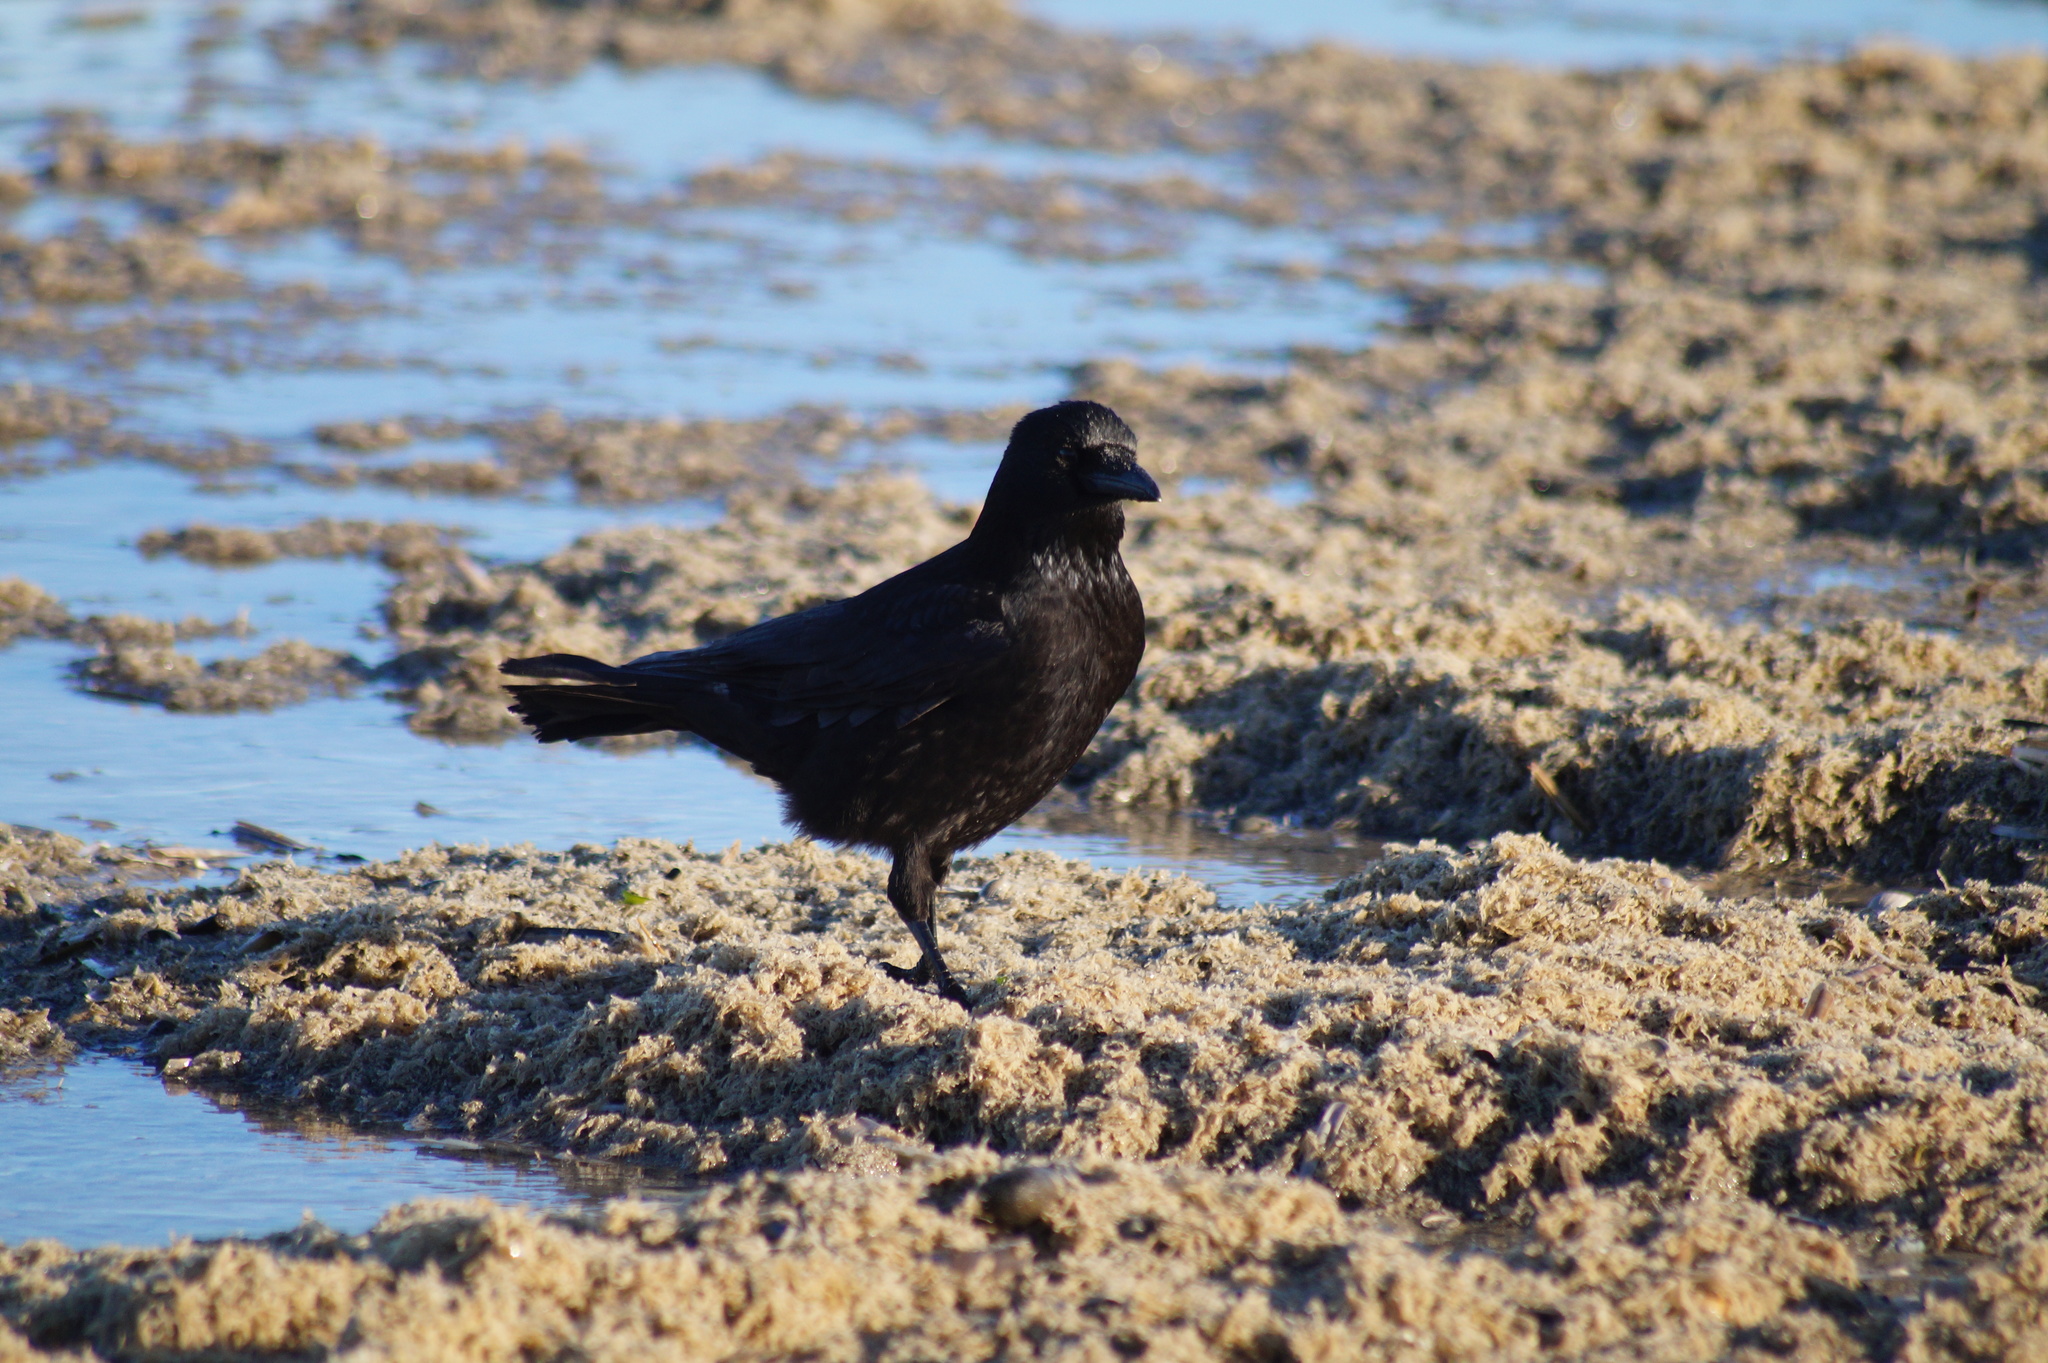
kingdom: Animalia
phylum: Chordata
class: Aves
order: Passeriformes
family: Corvidae
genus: Corvus
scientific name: Corvus corone
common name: Carrion crow
